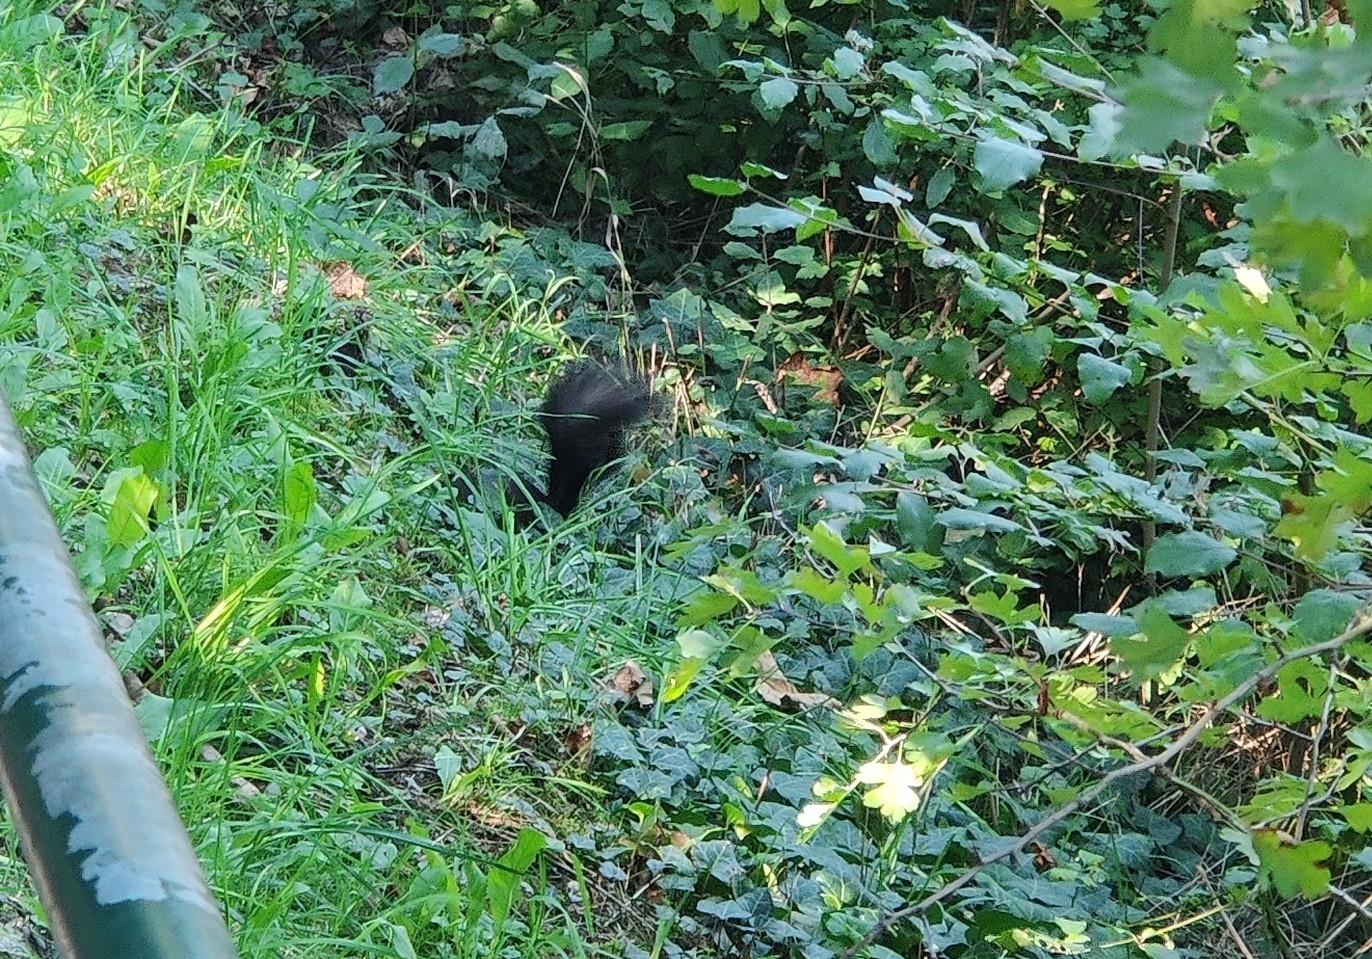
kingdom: Animalia
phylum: Chordata
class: Mammalia
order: Rodentia
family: Sciuridae
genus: Sciurus
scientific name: Sciurus vulgaris
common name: Eurasian red squirrel
